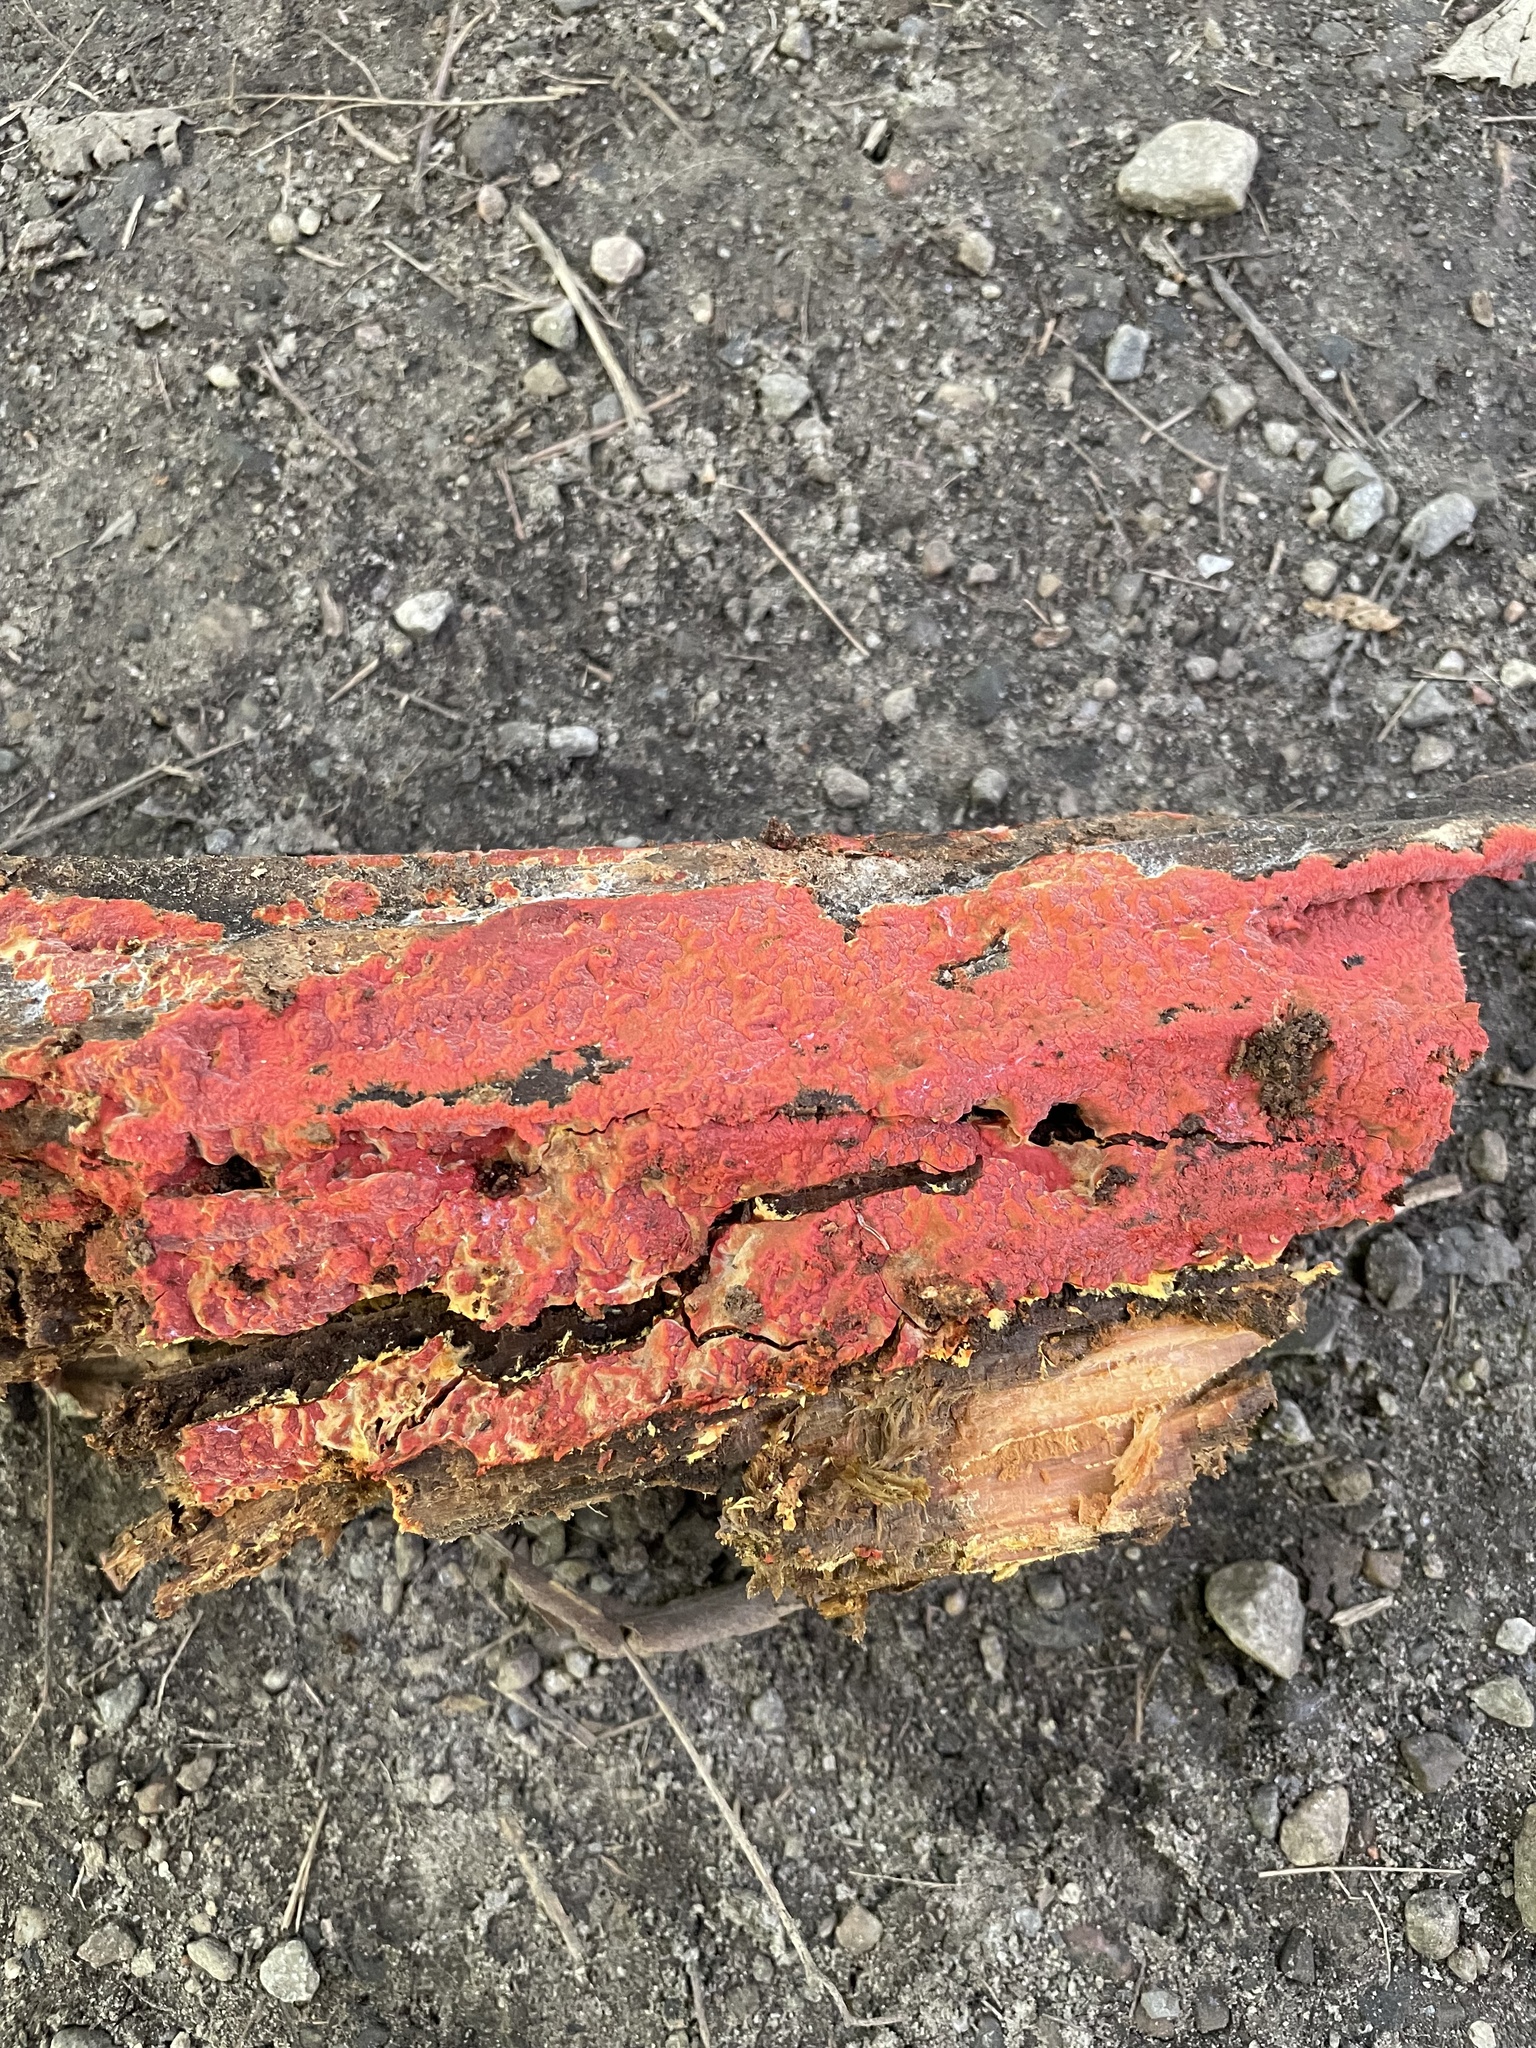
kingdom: Fungi
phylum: Basidiomycota
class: Agaricomycetes
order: Polyporales
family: Meruliaceae
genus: Phlebia
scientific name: Phlebia coccineofulva
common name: Scarlet waxcrust
